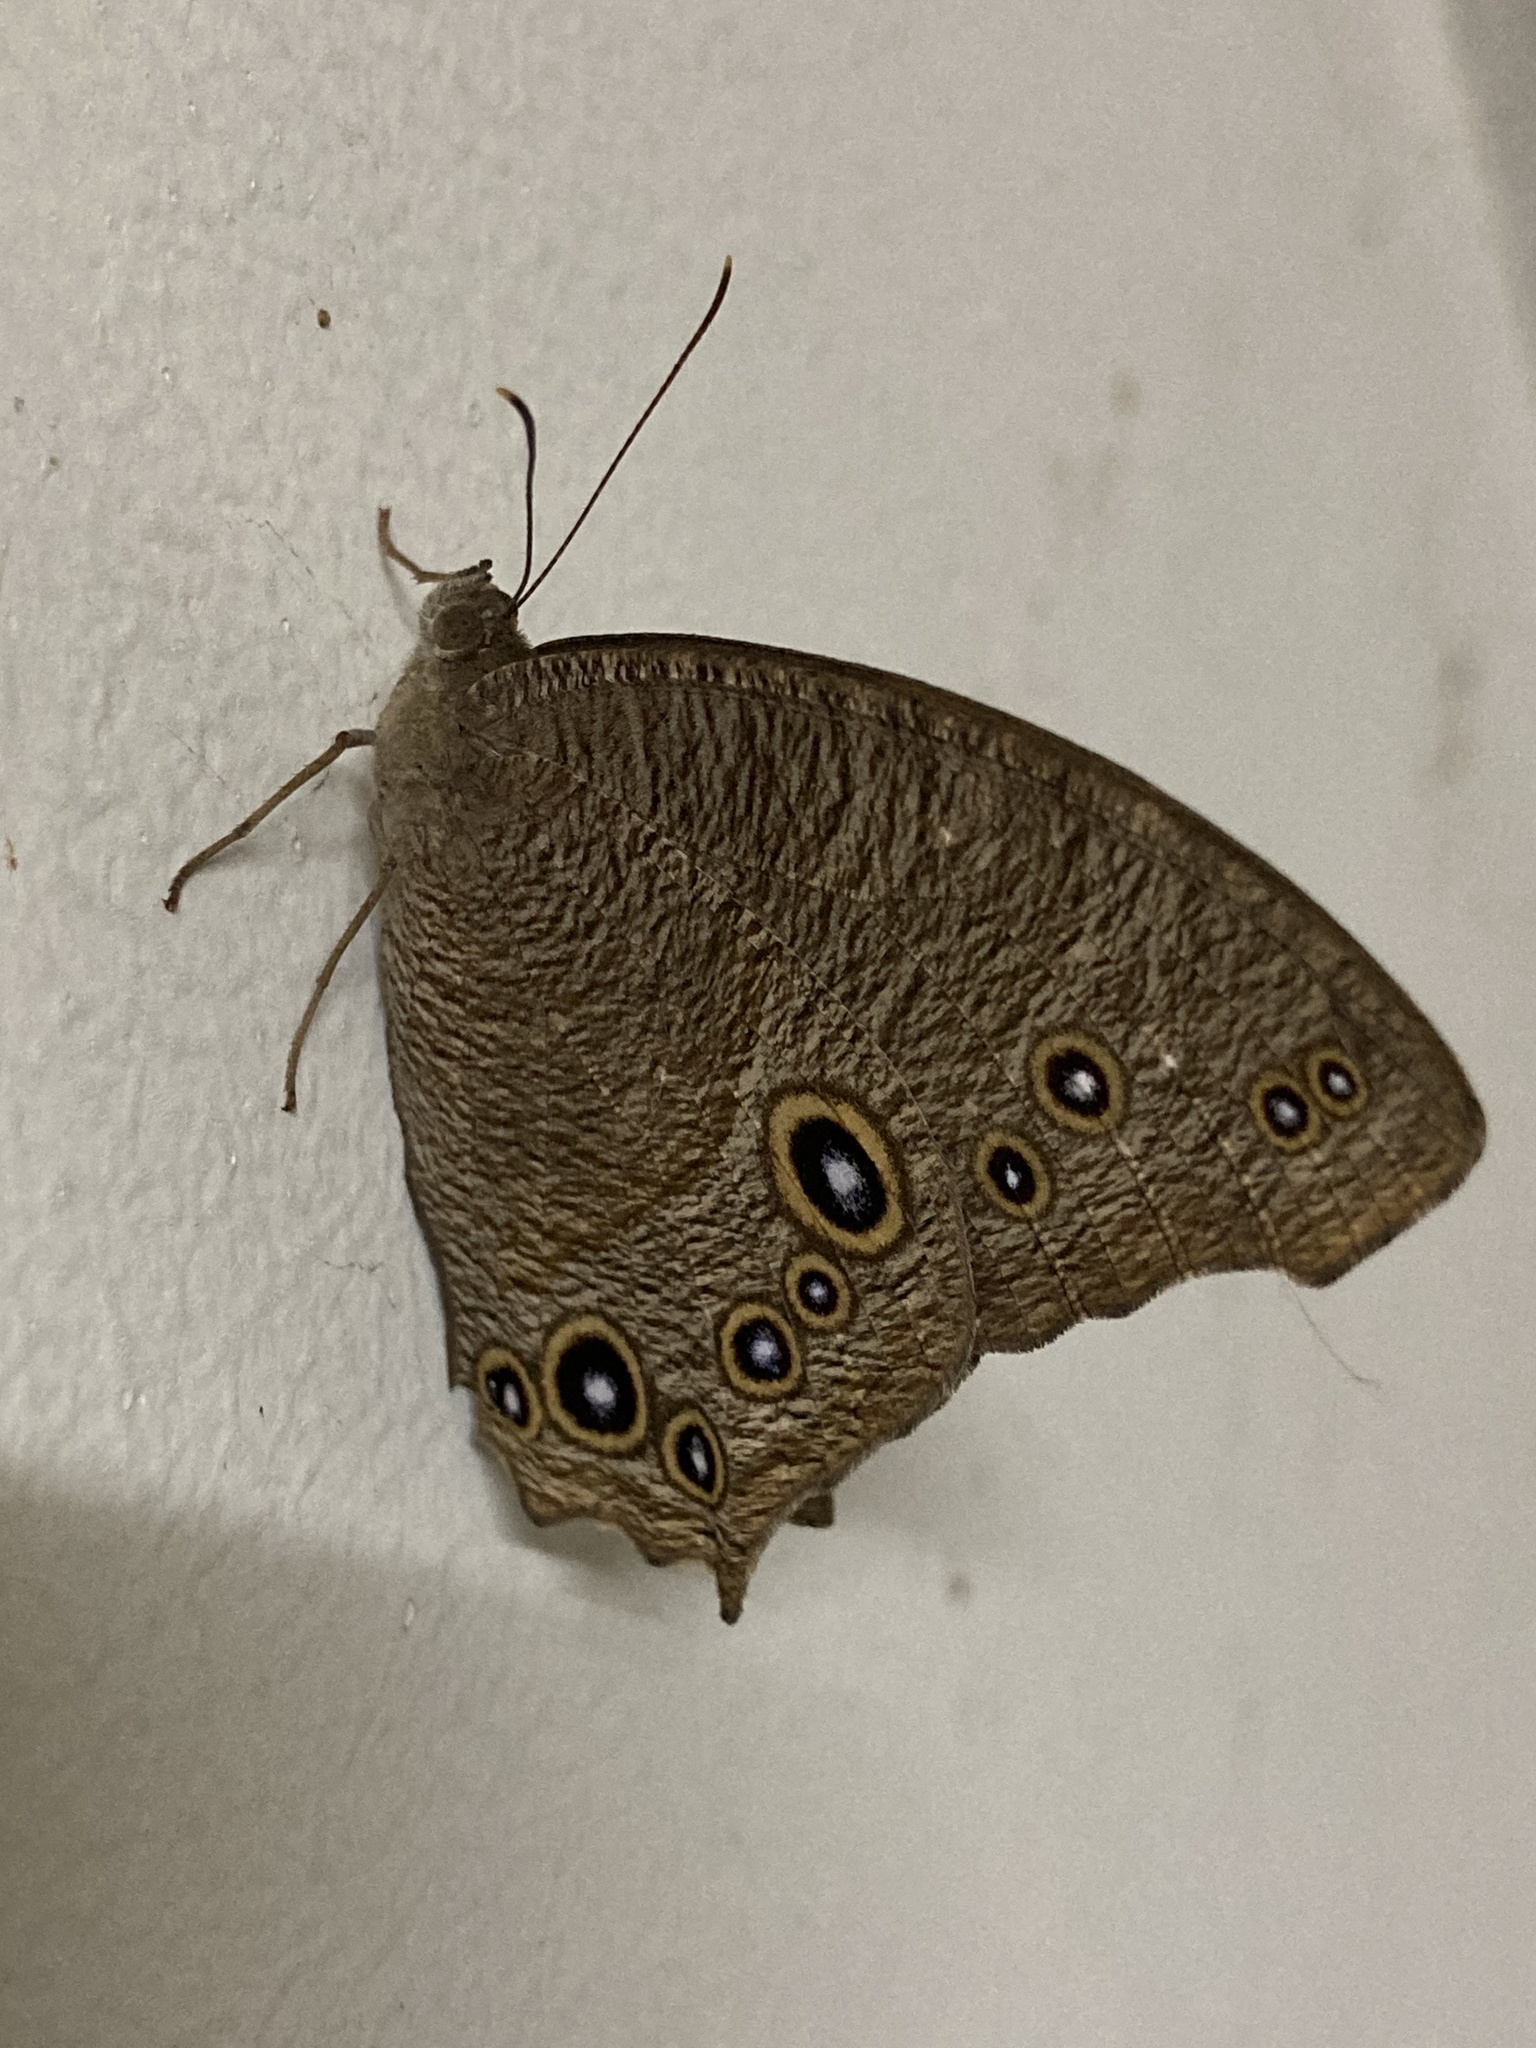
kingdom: Animalia
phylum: Arthropoda
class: Insecta
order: Lepidoptera
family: Nymphalidae
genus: Melanitis
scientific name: Melanitis leda
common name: Twilight brown
